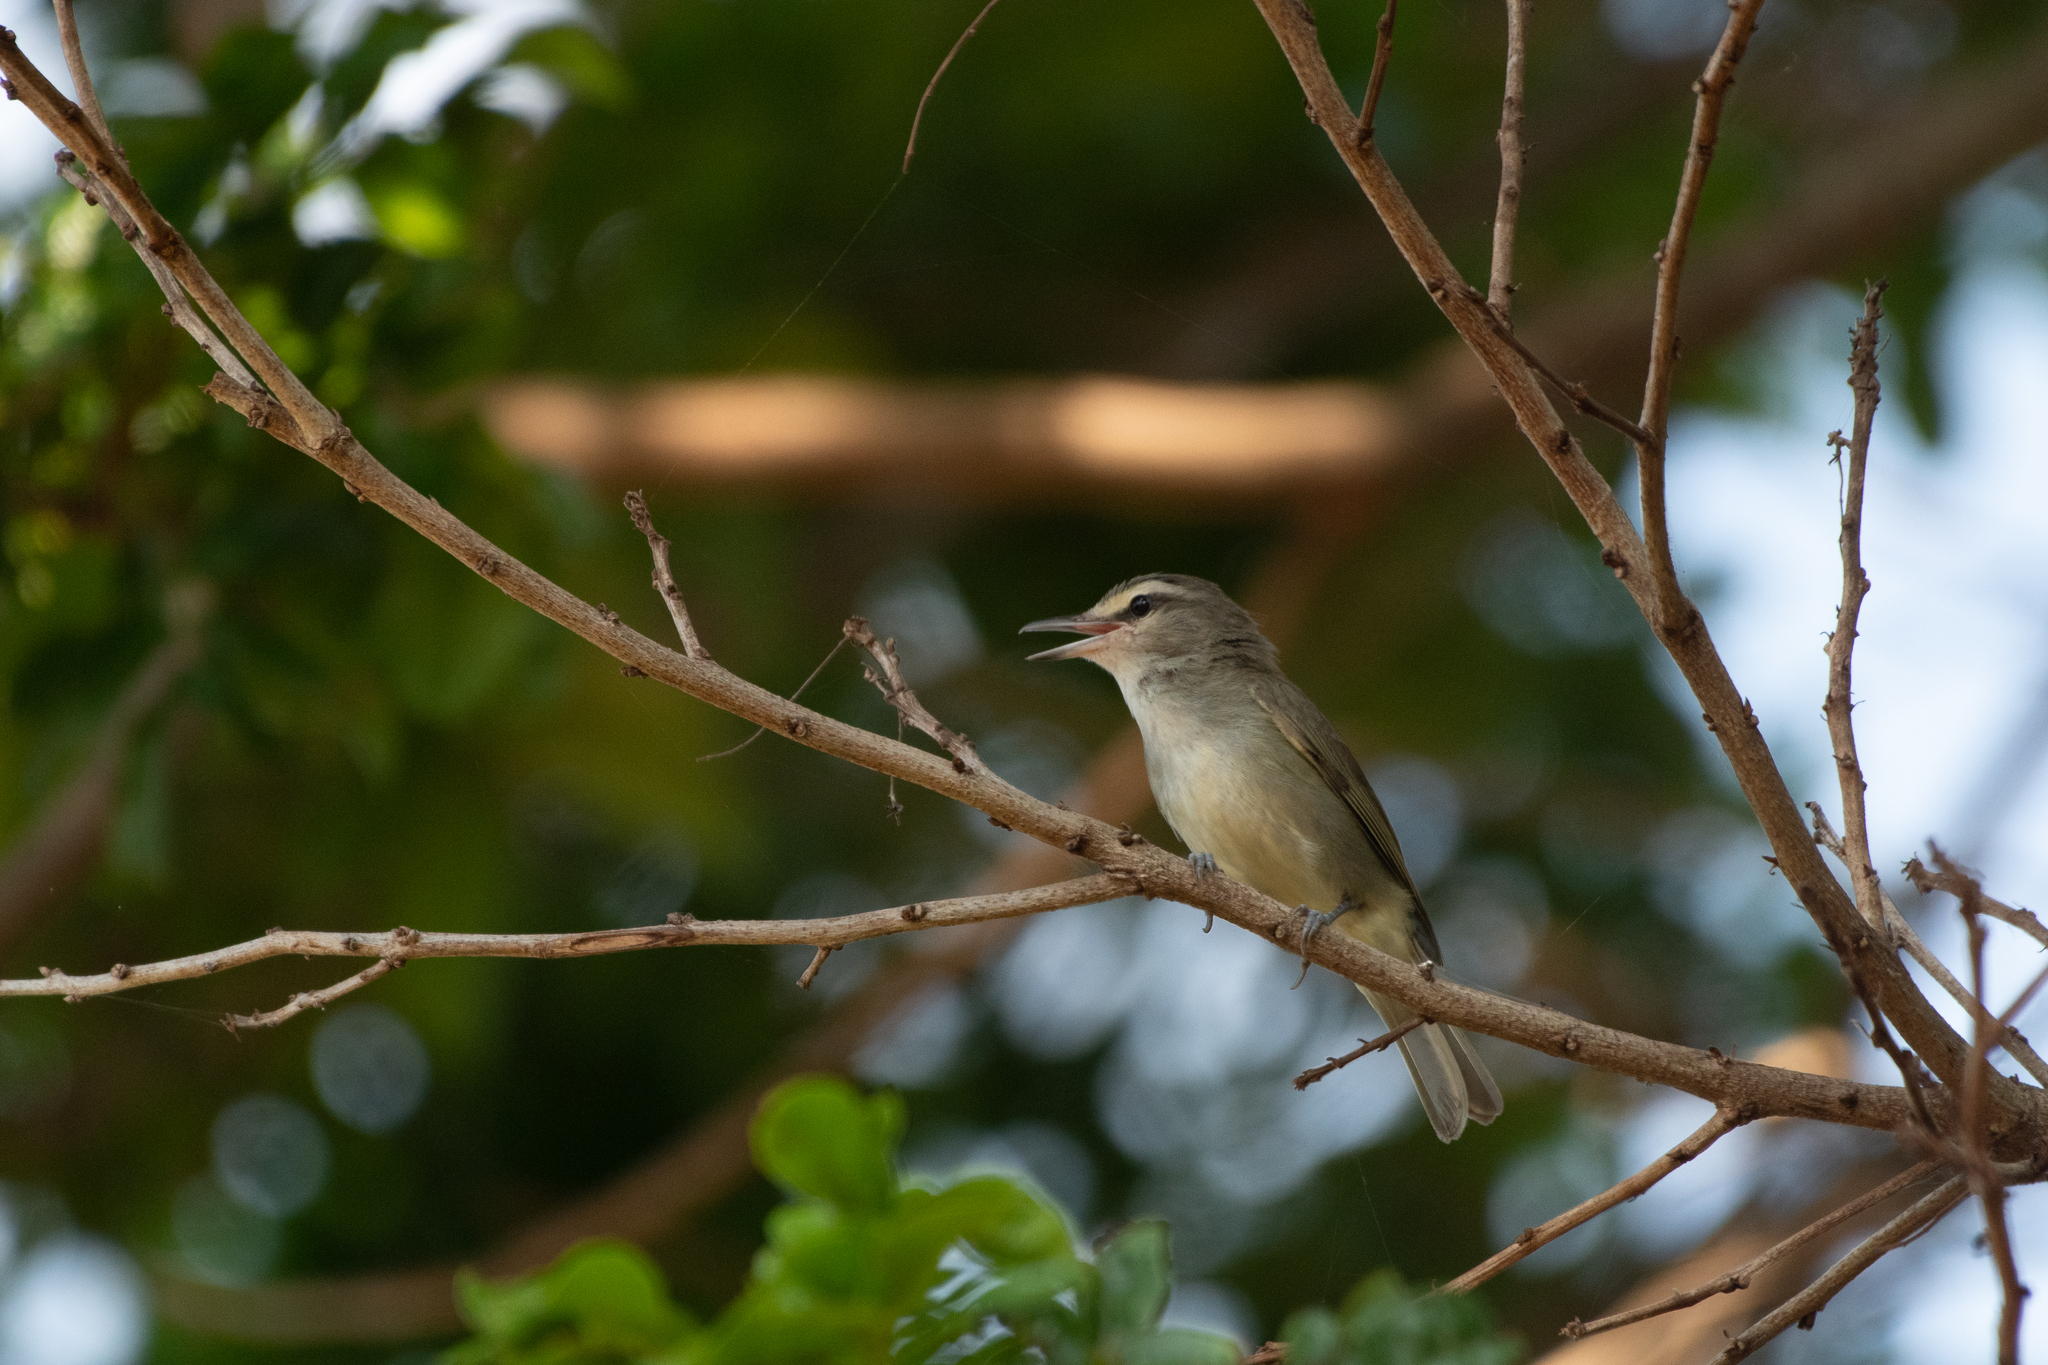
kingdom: Animalia
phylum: Chordata
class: Aves
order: Passeriformes
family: Vireonidae
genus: Vireo
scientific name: Vireo magister
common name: Yucatan vireo
